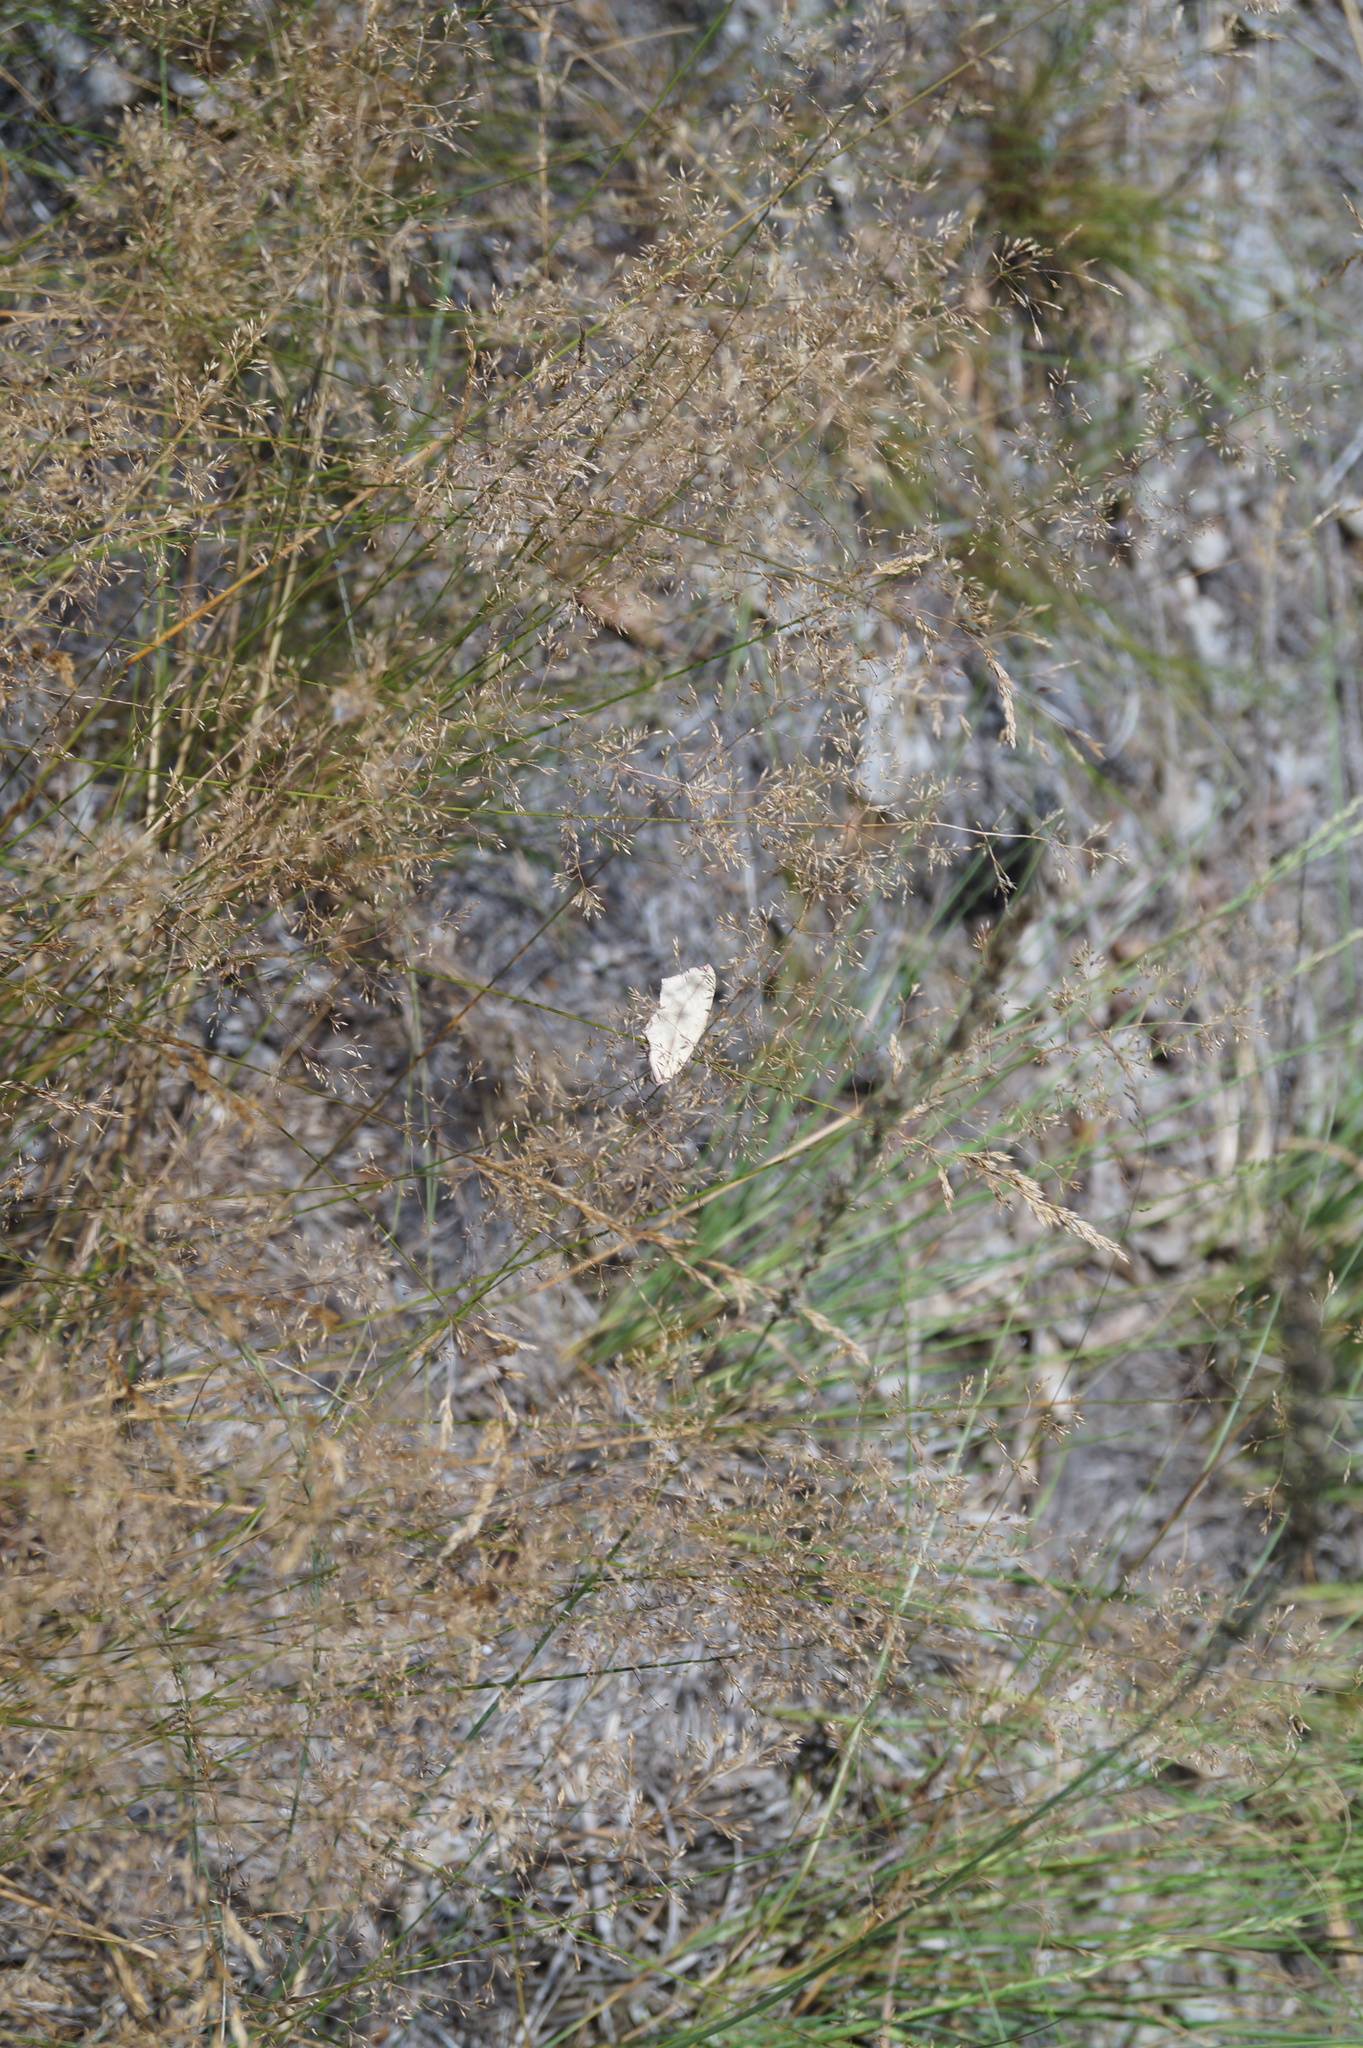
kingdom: Animalia
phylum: Arthropoda
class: Insecta
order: Lepidoptera
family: Geometridae
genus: Timandra
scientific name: Timandra comae
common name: Blood-vein
